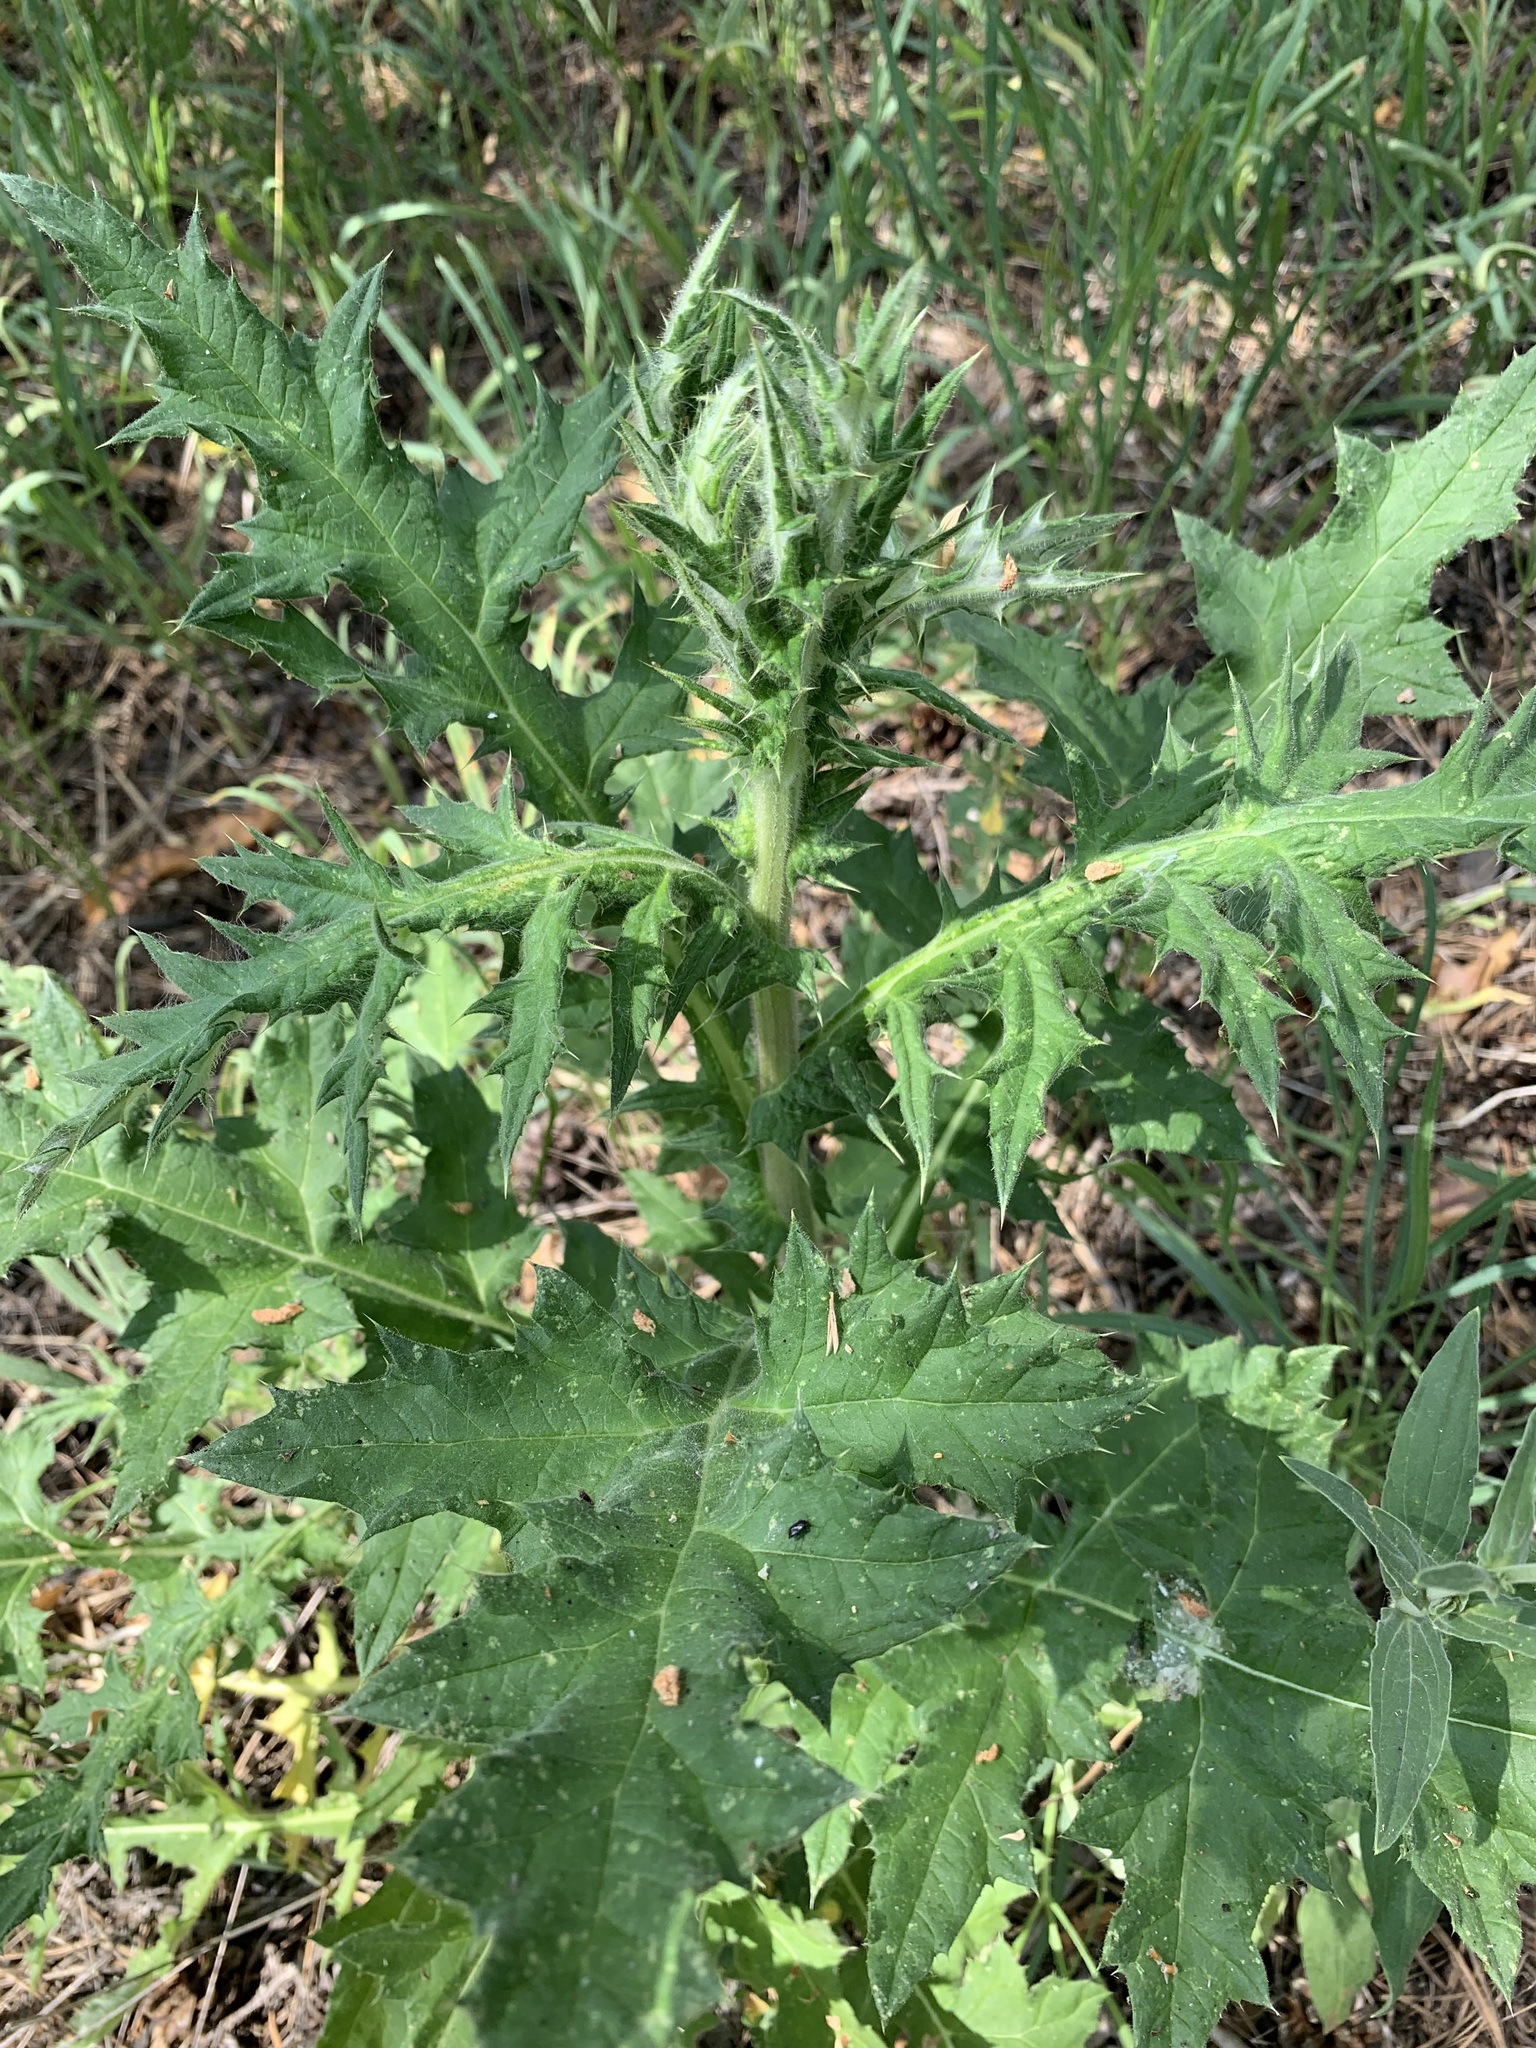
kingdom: Plantae
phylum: Tracheophyta
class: Magnoliopsida
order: Asterales
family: Asteraceae
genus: Echinops
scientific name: Echinops sphaerocephalus
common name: Glandular globe-thistle
